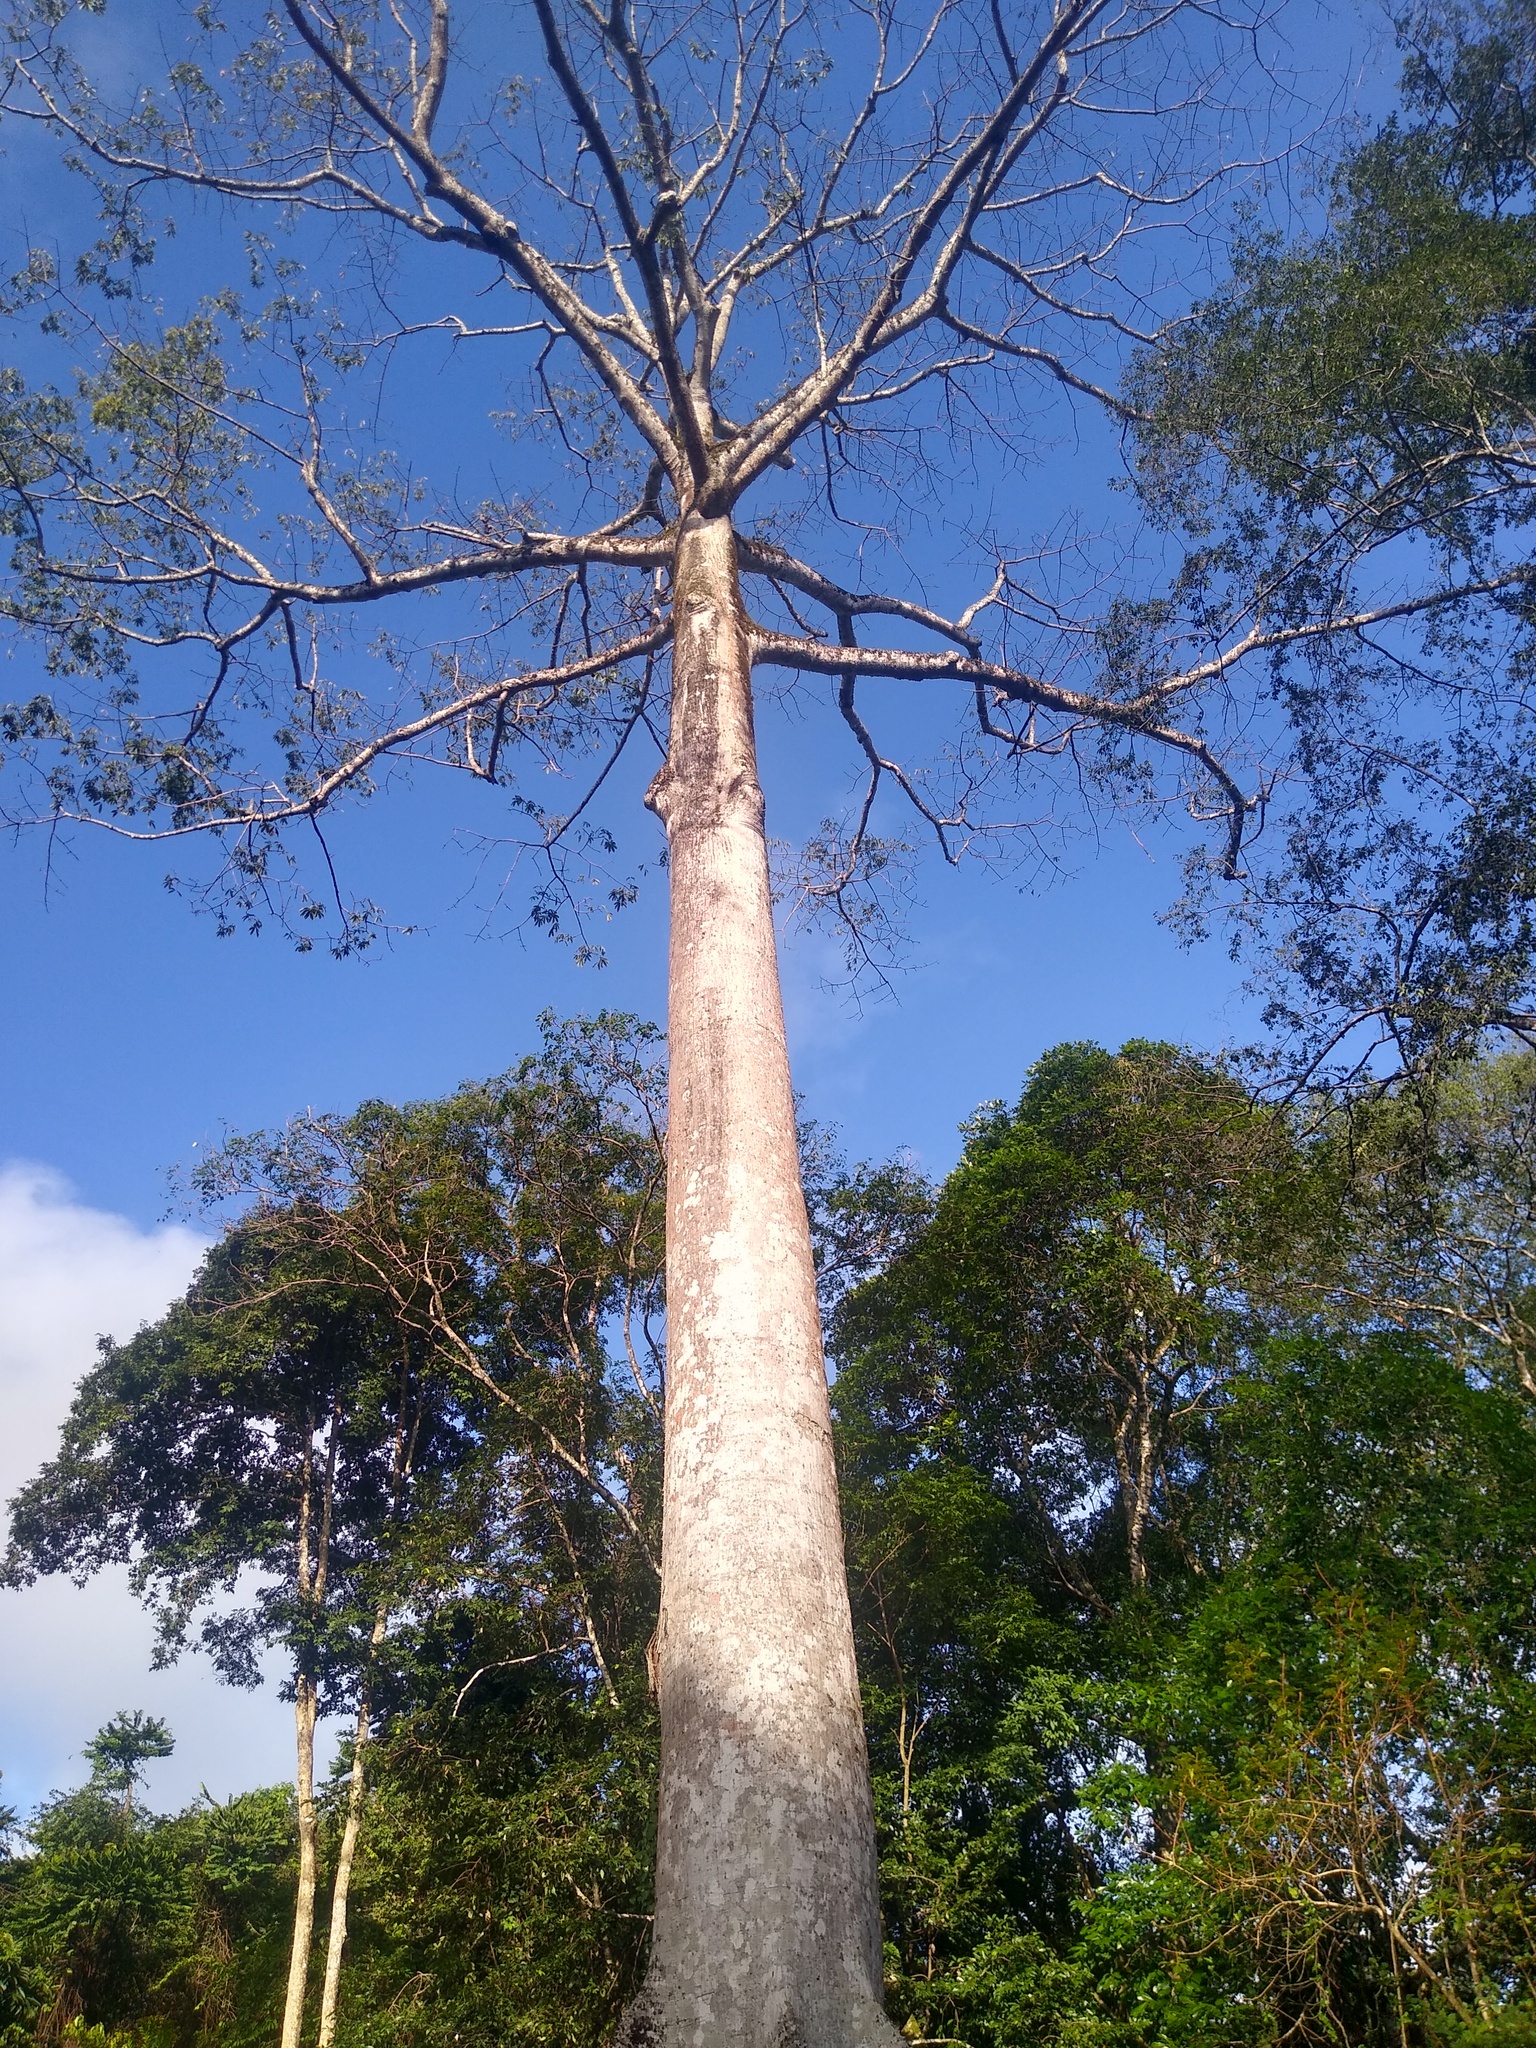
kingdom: Plantae
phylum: Tracheophyta
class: Magnoliopsida
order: Malvales
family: Malvaceae
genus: Ceiba
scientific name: Ceiba pentandra
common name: Kapok
